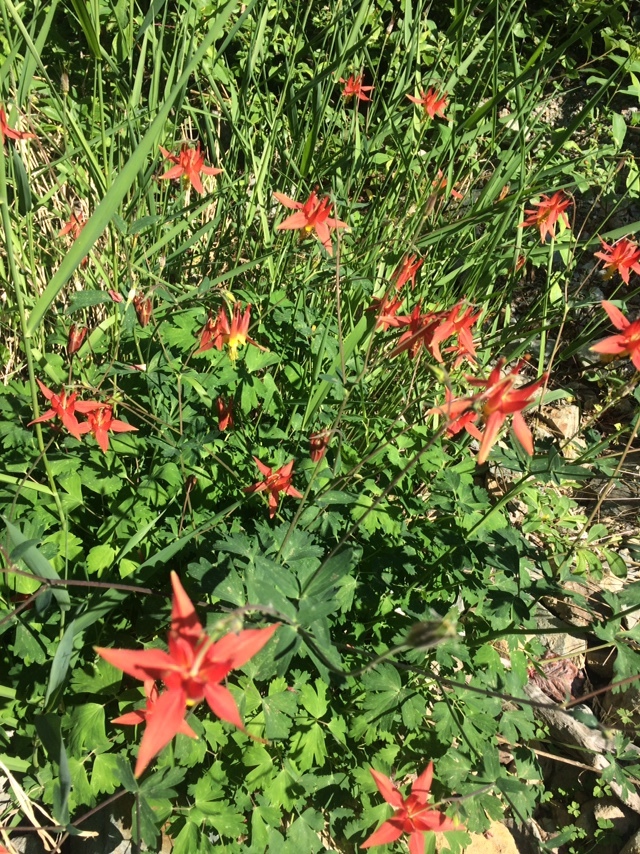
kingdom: Plantae
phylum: Tracheophyta
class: Magnoliopsida
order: Ranunculales
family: Ranunculaceae
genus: Aquilegia
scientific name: Aquilegia formosa
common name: Sitka columbine
